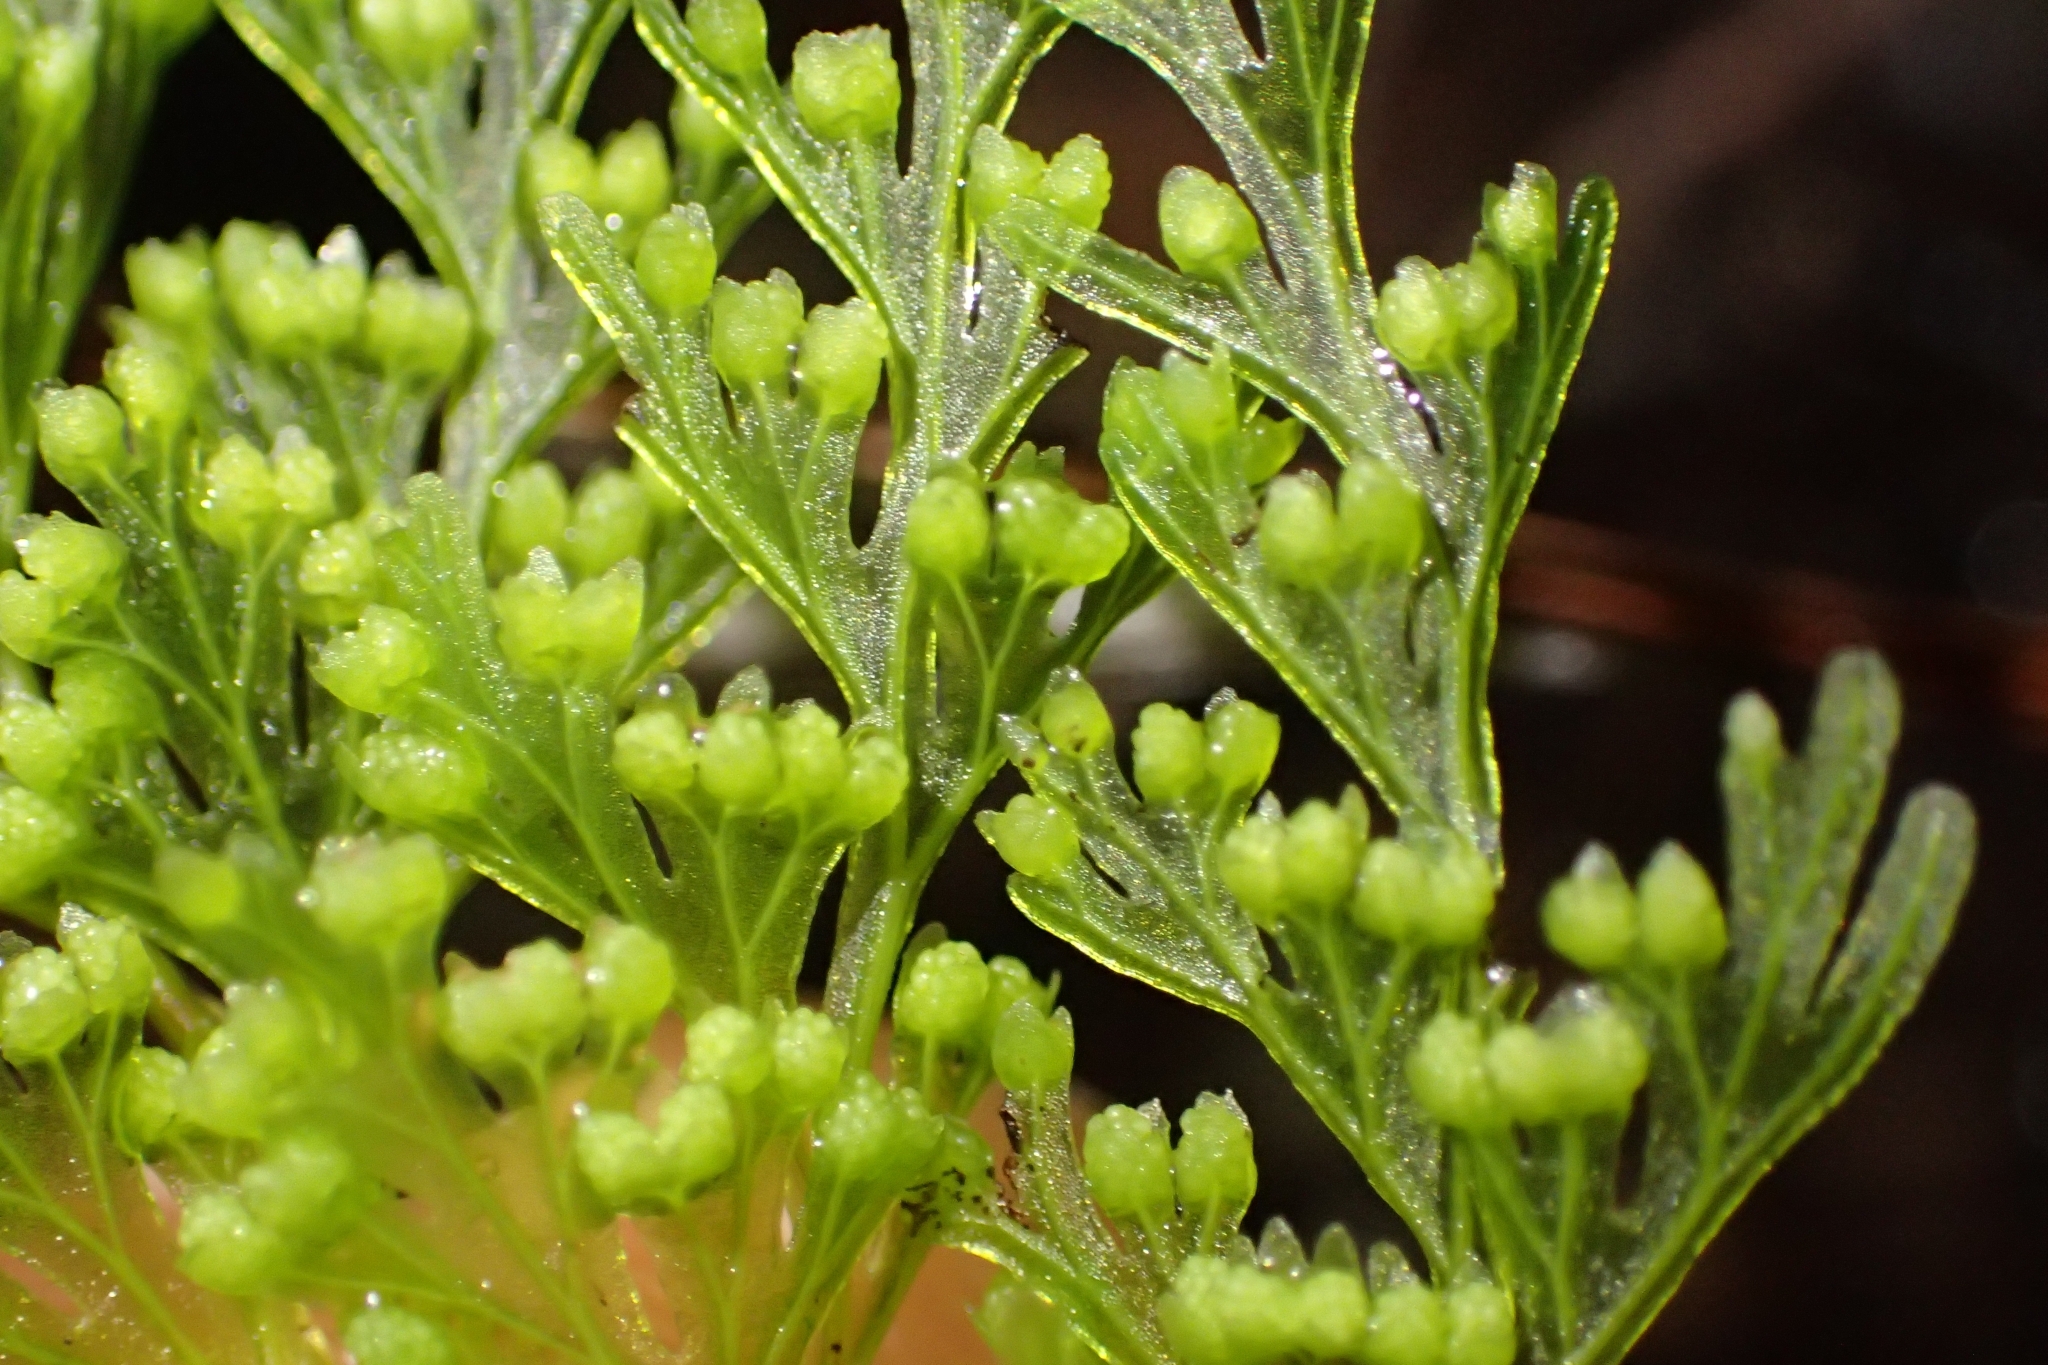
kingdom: Plantae
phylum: Tracheophyta
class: Polypodiopsida
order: Hymenophyllales
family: Hymenophyllaceae
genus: Hymenophyllum
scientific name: Hymenophyllum demissum
